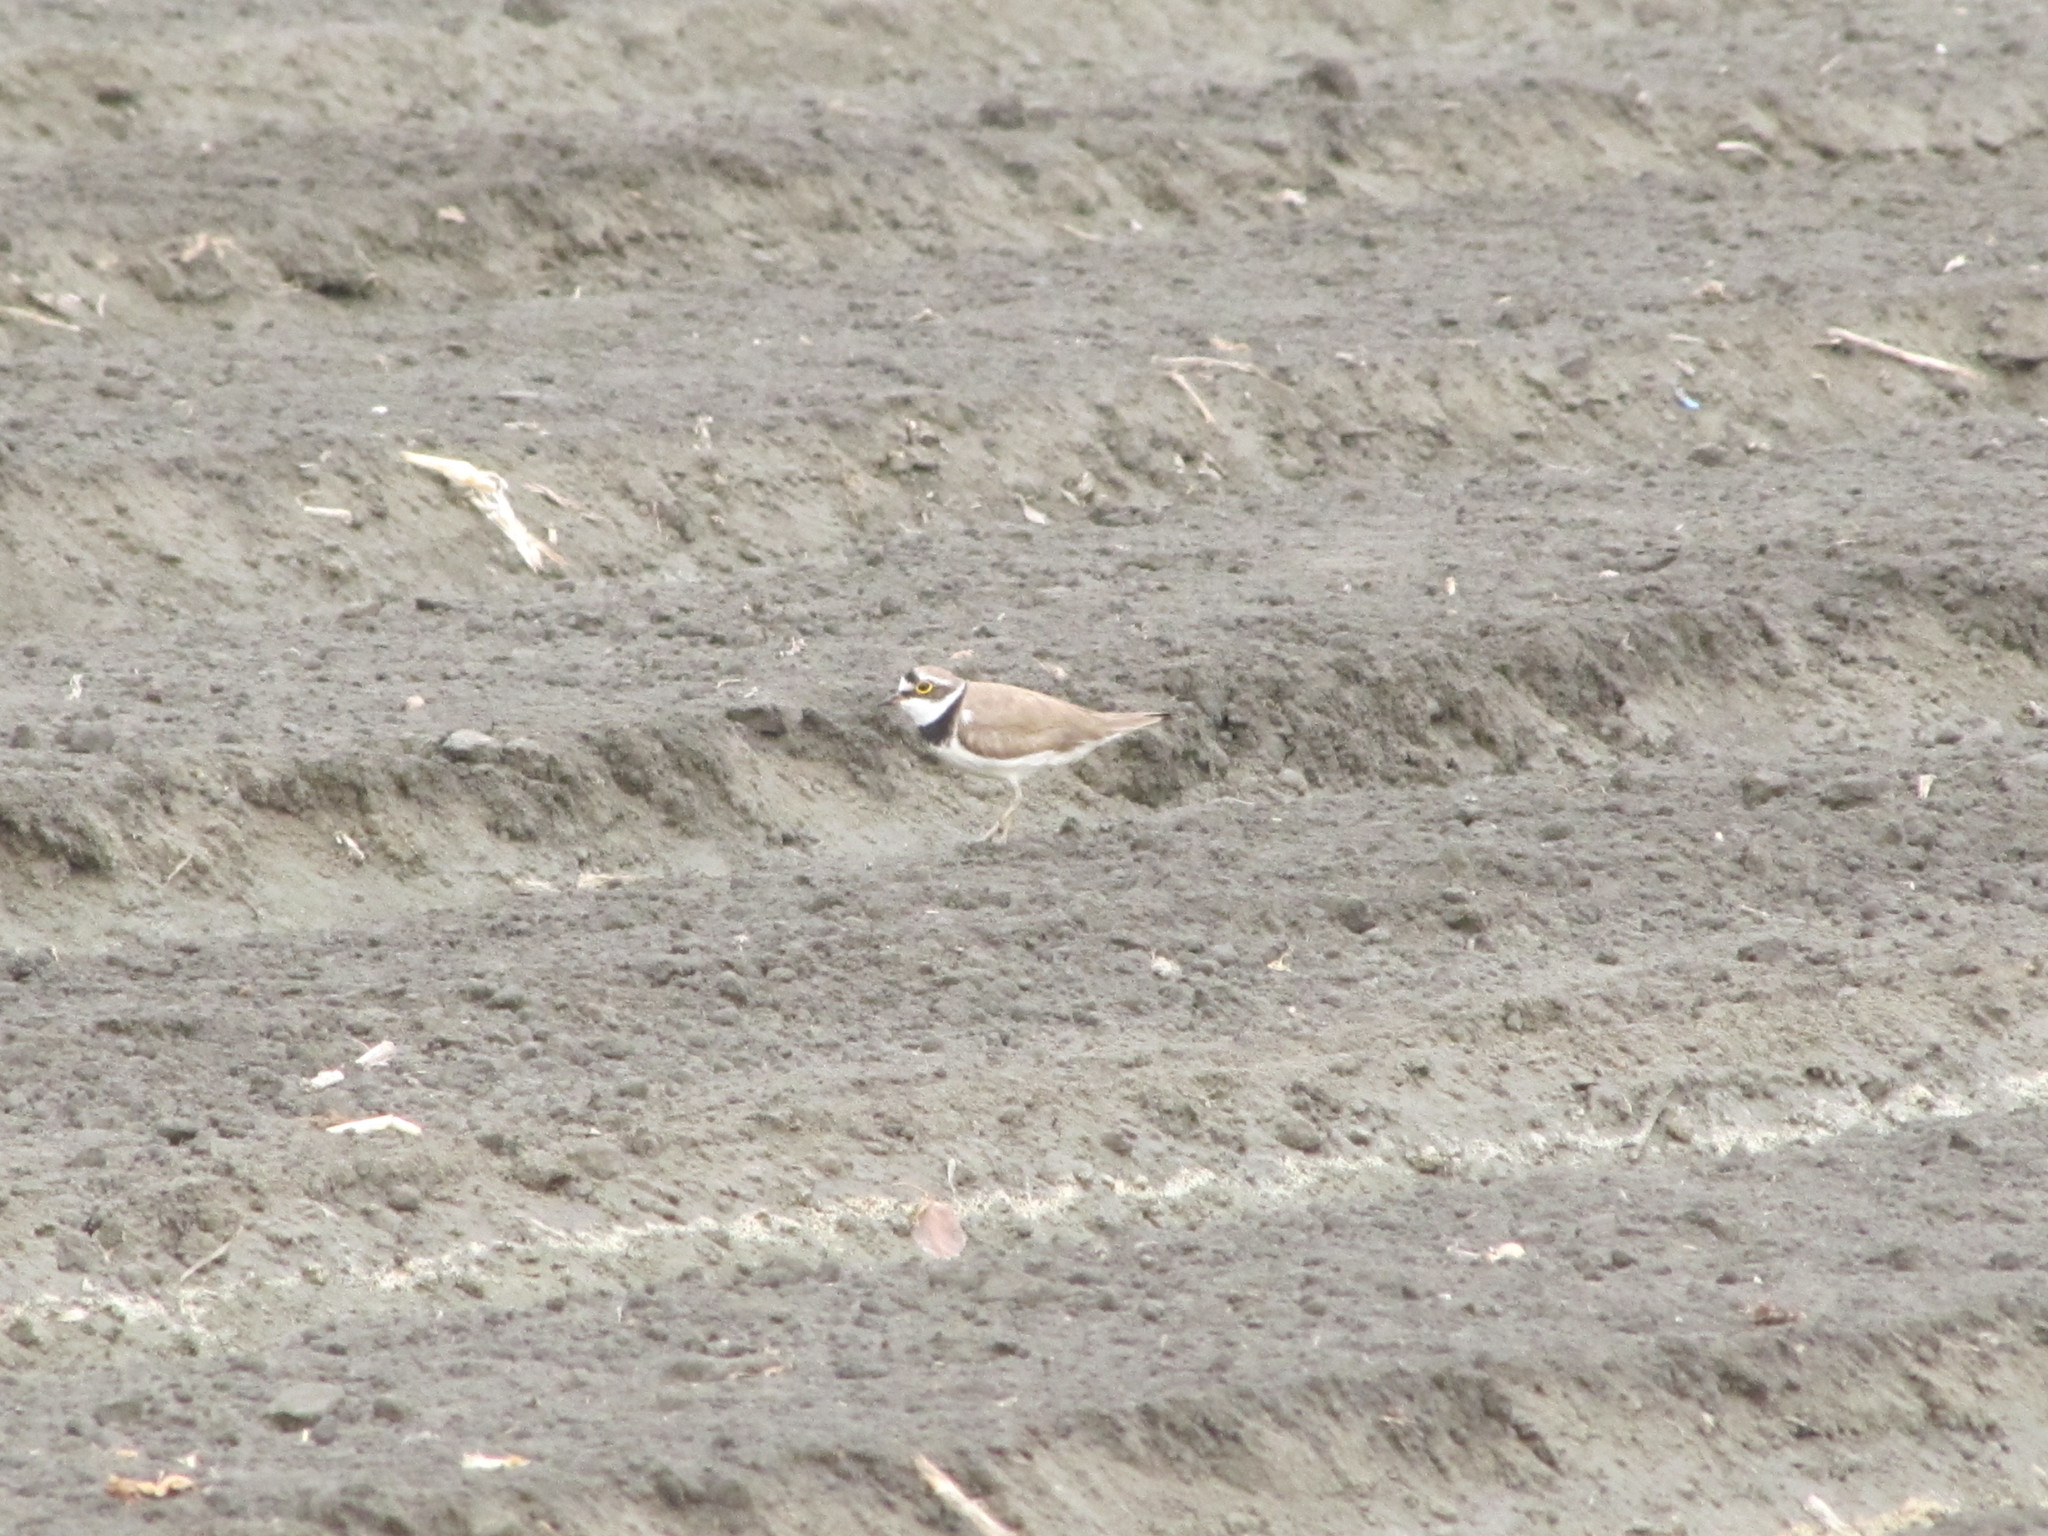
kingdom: Animalia
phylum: Chordata
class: Aves
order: Charadriiformes
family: Charadriidae
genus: Charadrius
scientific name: Charadrius dubius
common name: Little ringed plover
